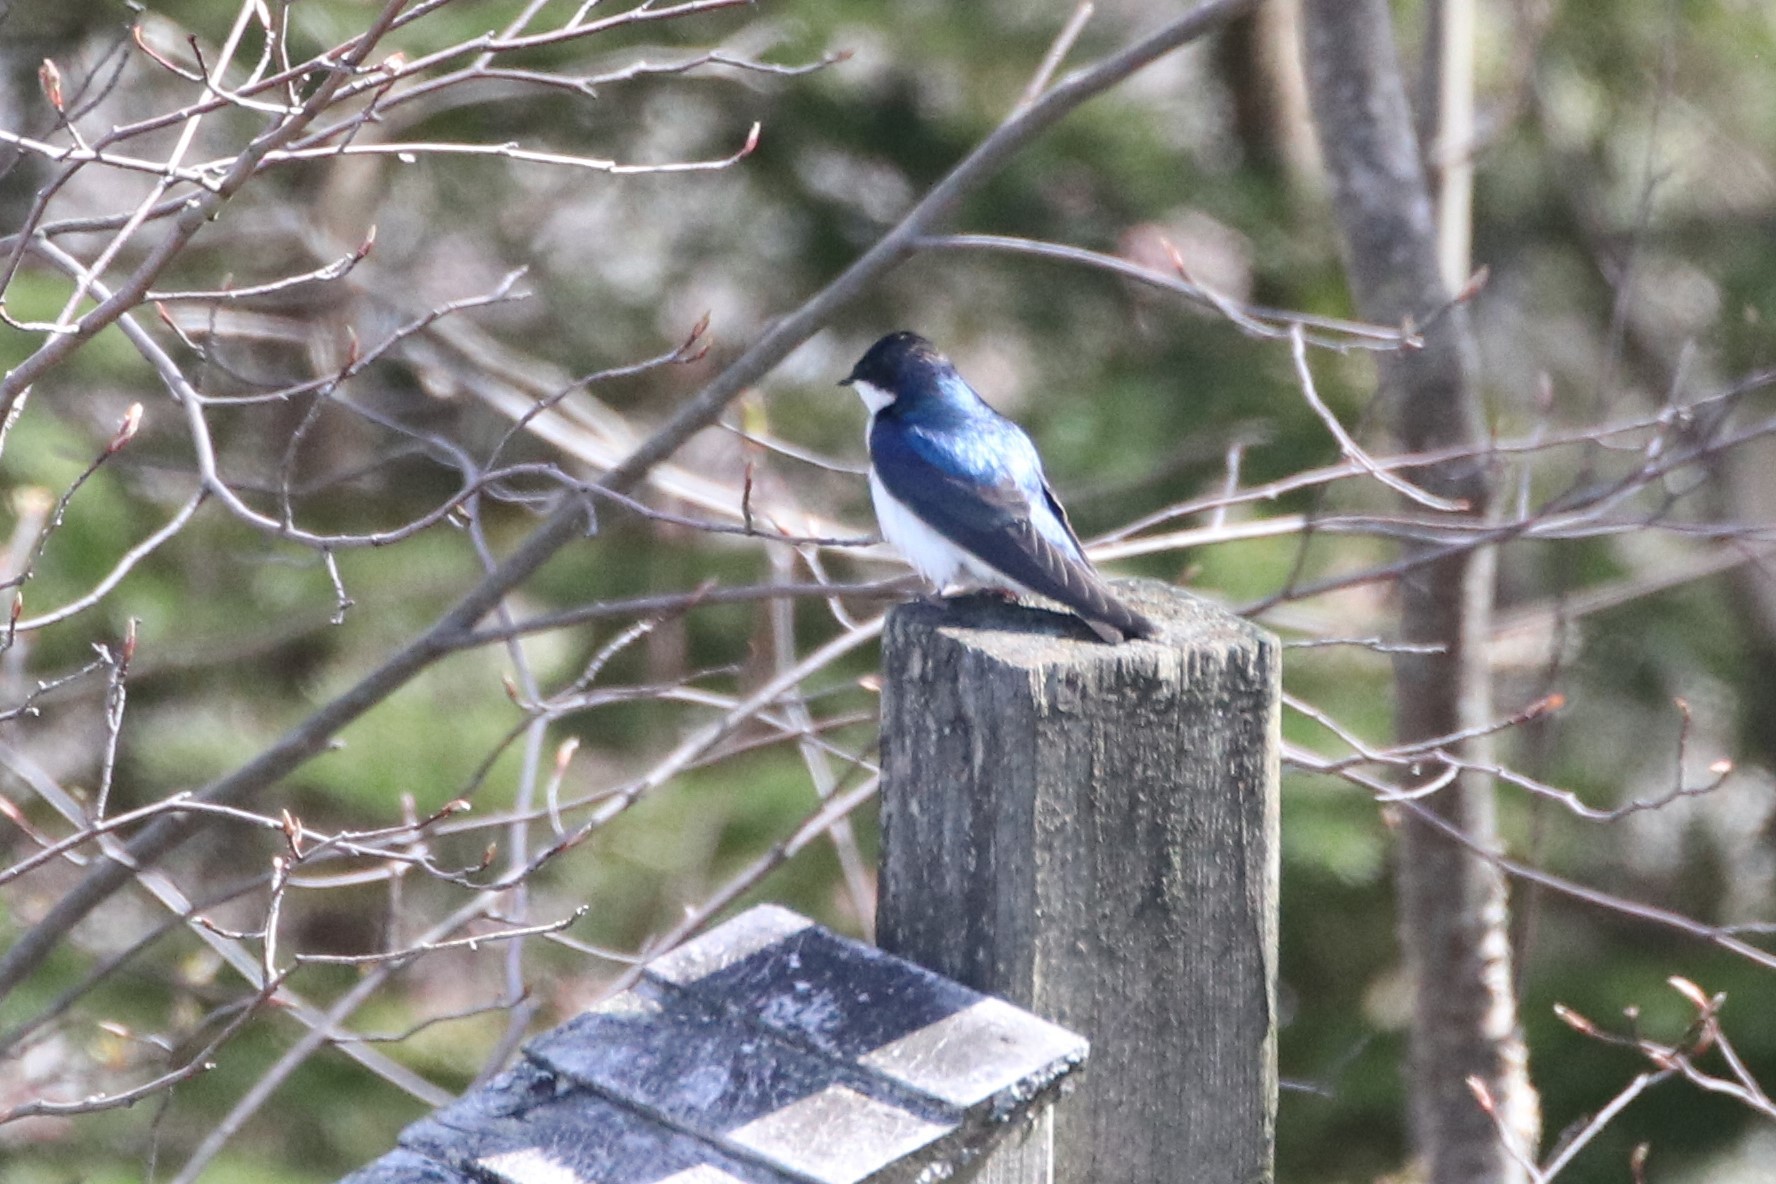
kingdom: Animalia
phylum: Chordata
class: Aves
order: Passeriformes
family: Hirundinidae
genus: Tachycineta
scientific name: Tachycineta bicolor
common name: Tree swallow
